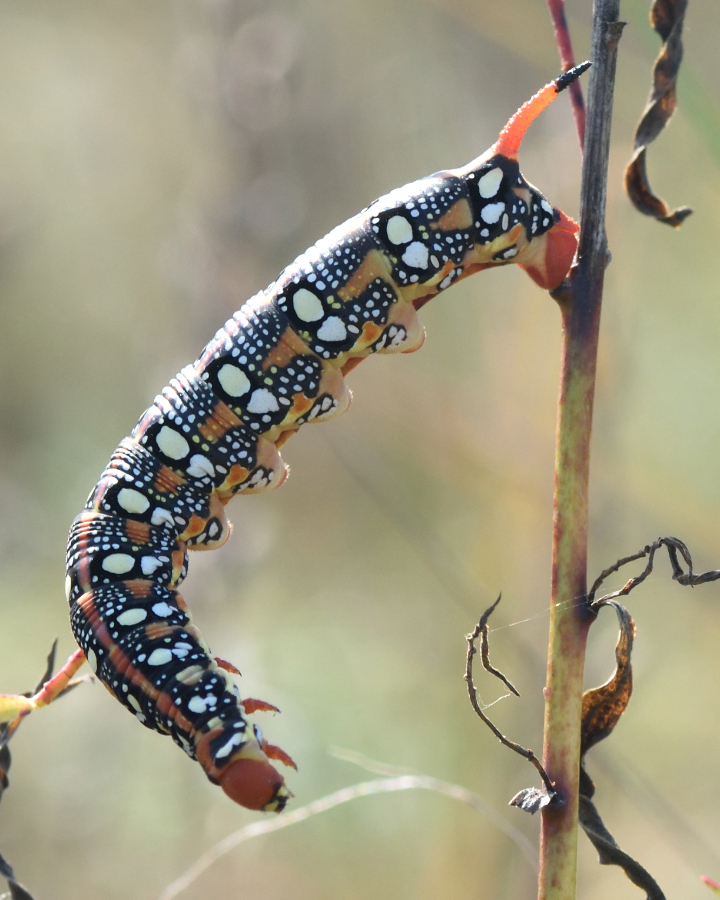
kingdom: Animalia
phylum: Arthropoda
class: Insecta
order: Lepidoptera
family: Sphingidae
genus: Hyles
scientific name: Hyles euphorbiae
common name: Spurge hawk-moth
